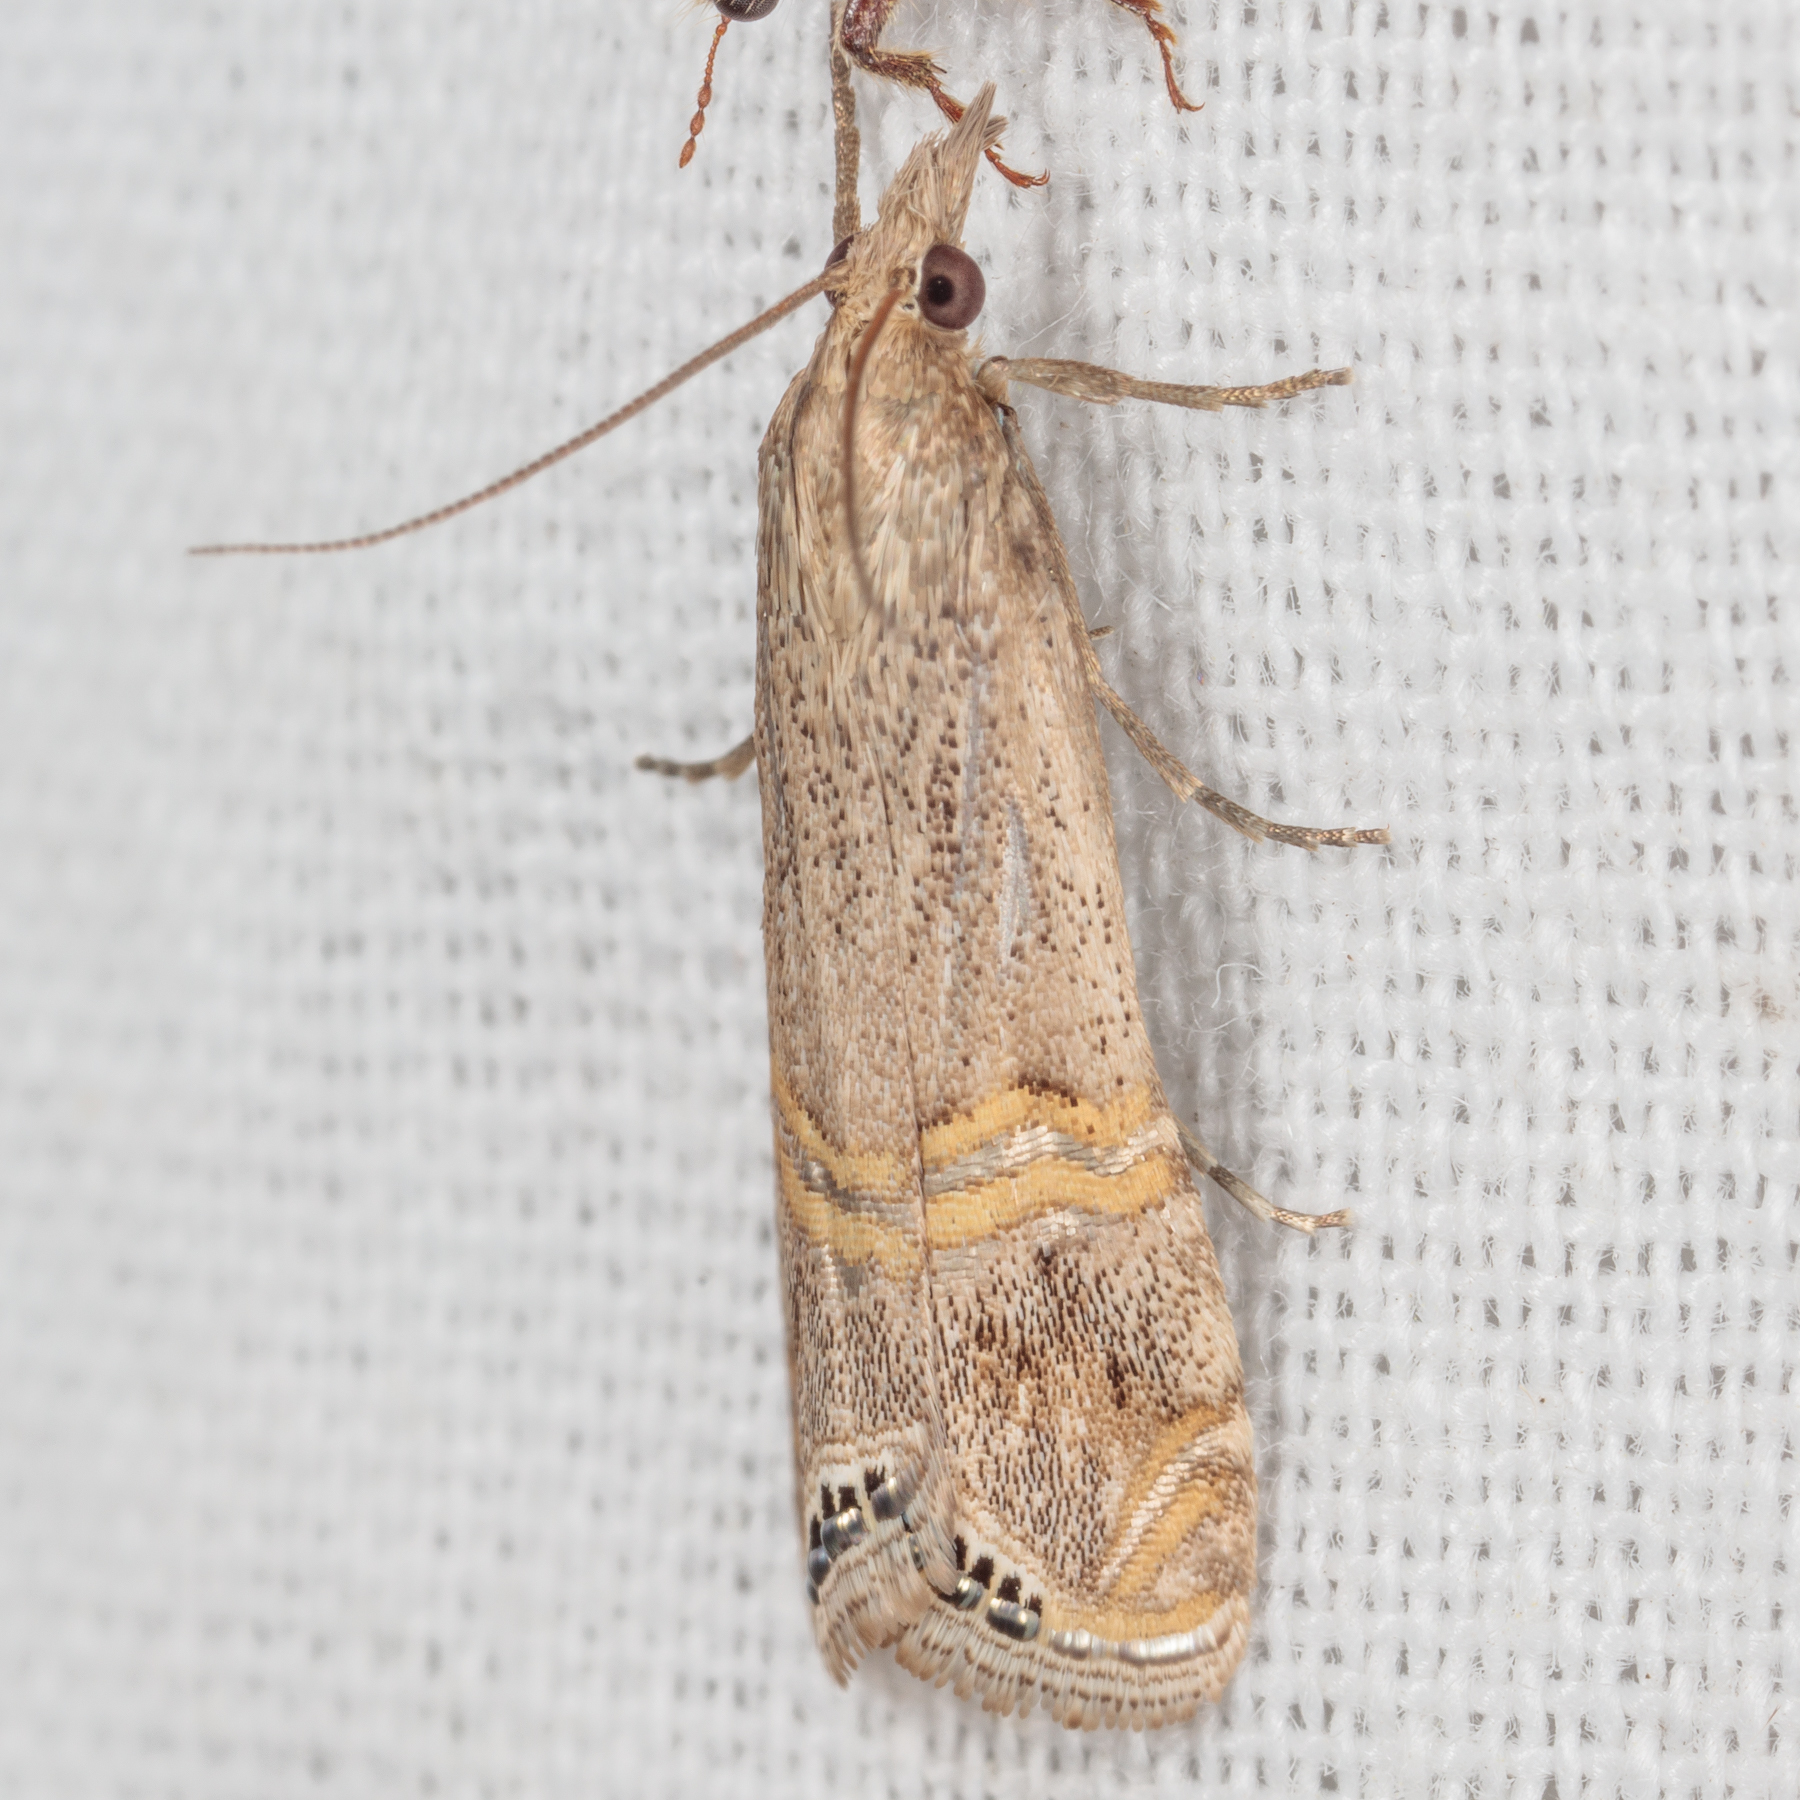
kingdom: Animalia
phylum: Arthropoda
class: Insecta
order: Lepidoptera
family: Crambidae
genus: Euchromius
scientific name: Euchromius ocellea
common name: Necklace veneer moth
